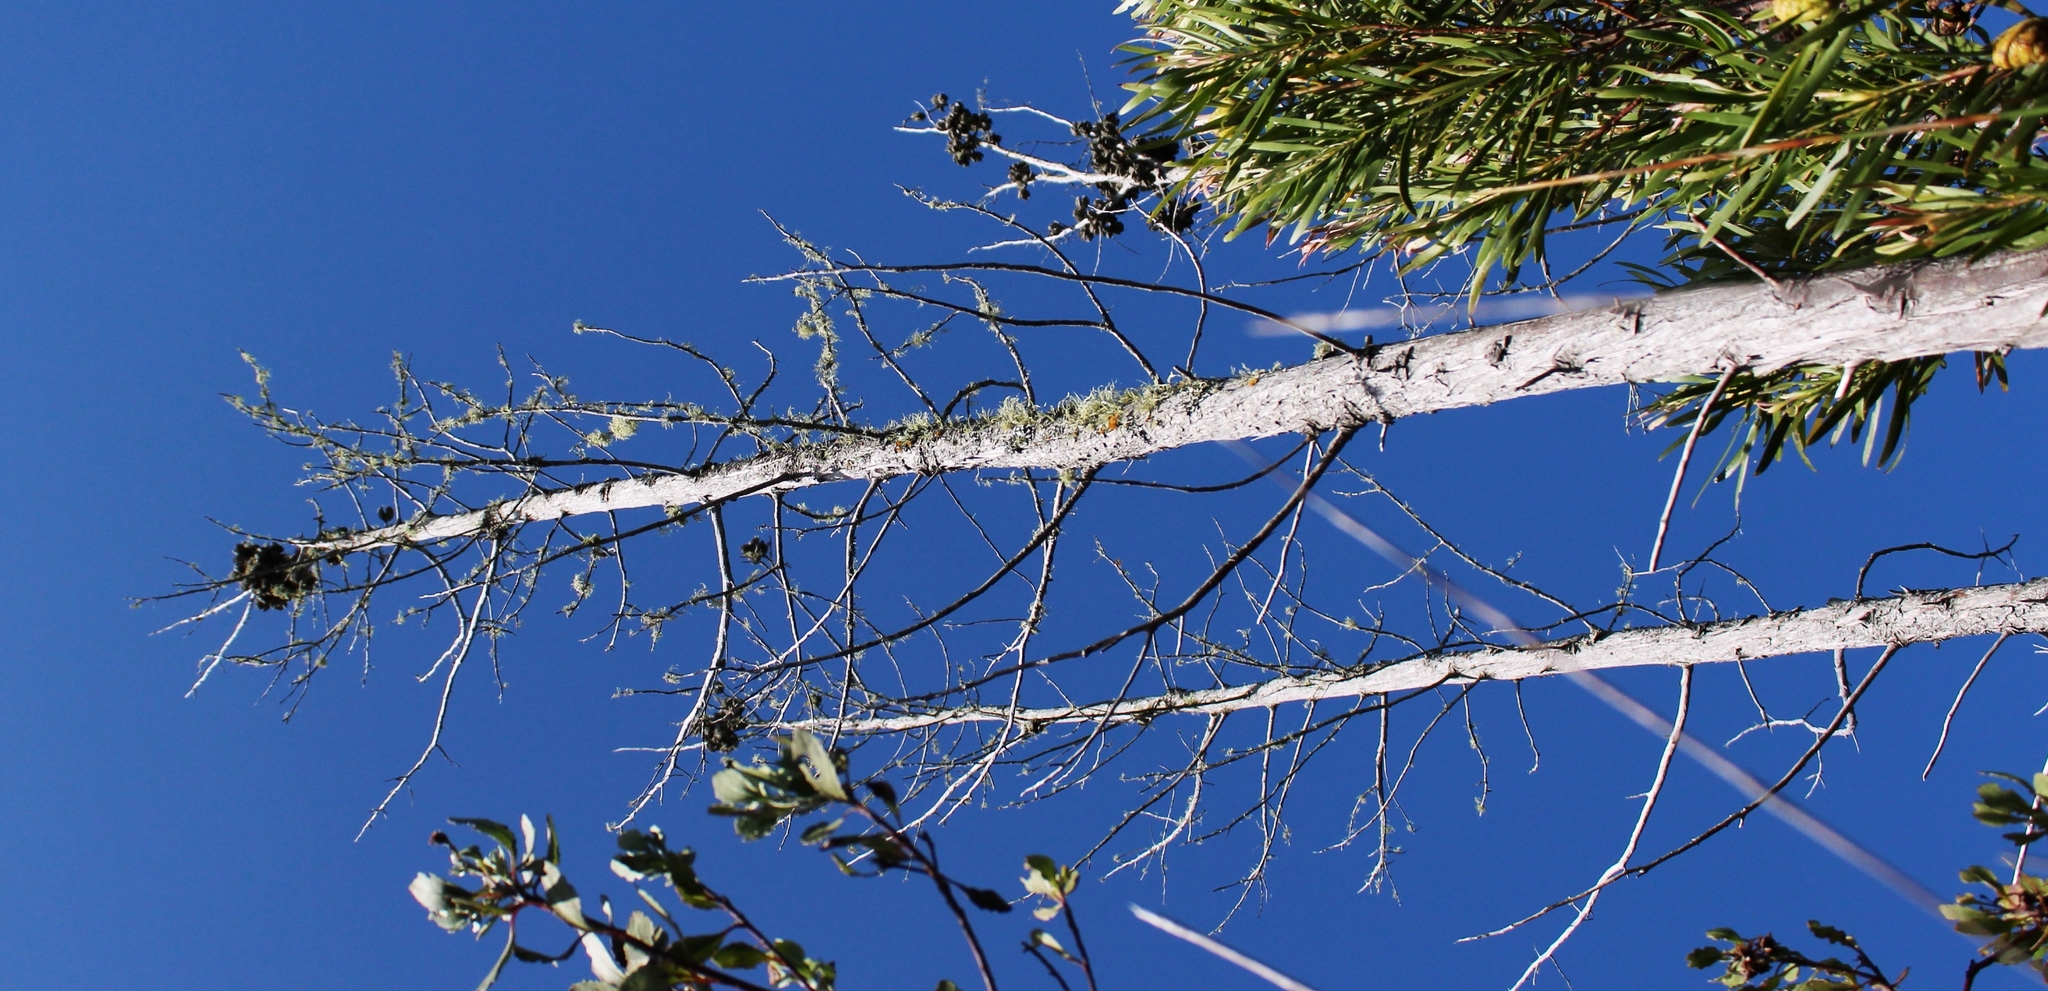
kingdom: Plantae
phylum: Tracheophyta
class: Pinopsida
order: Pinales
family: Cupressaceae
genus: Widdringtonia
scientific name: Widdringtonia nodiflora
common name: Cape cypress
